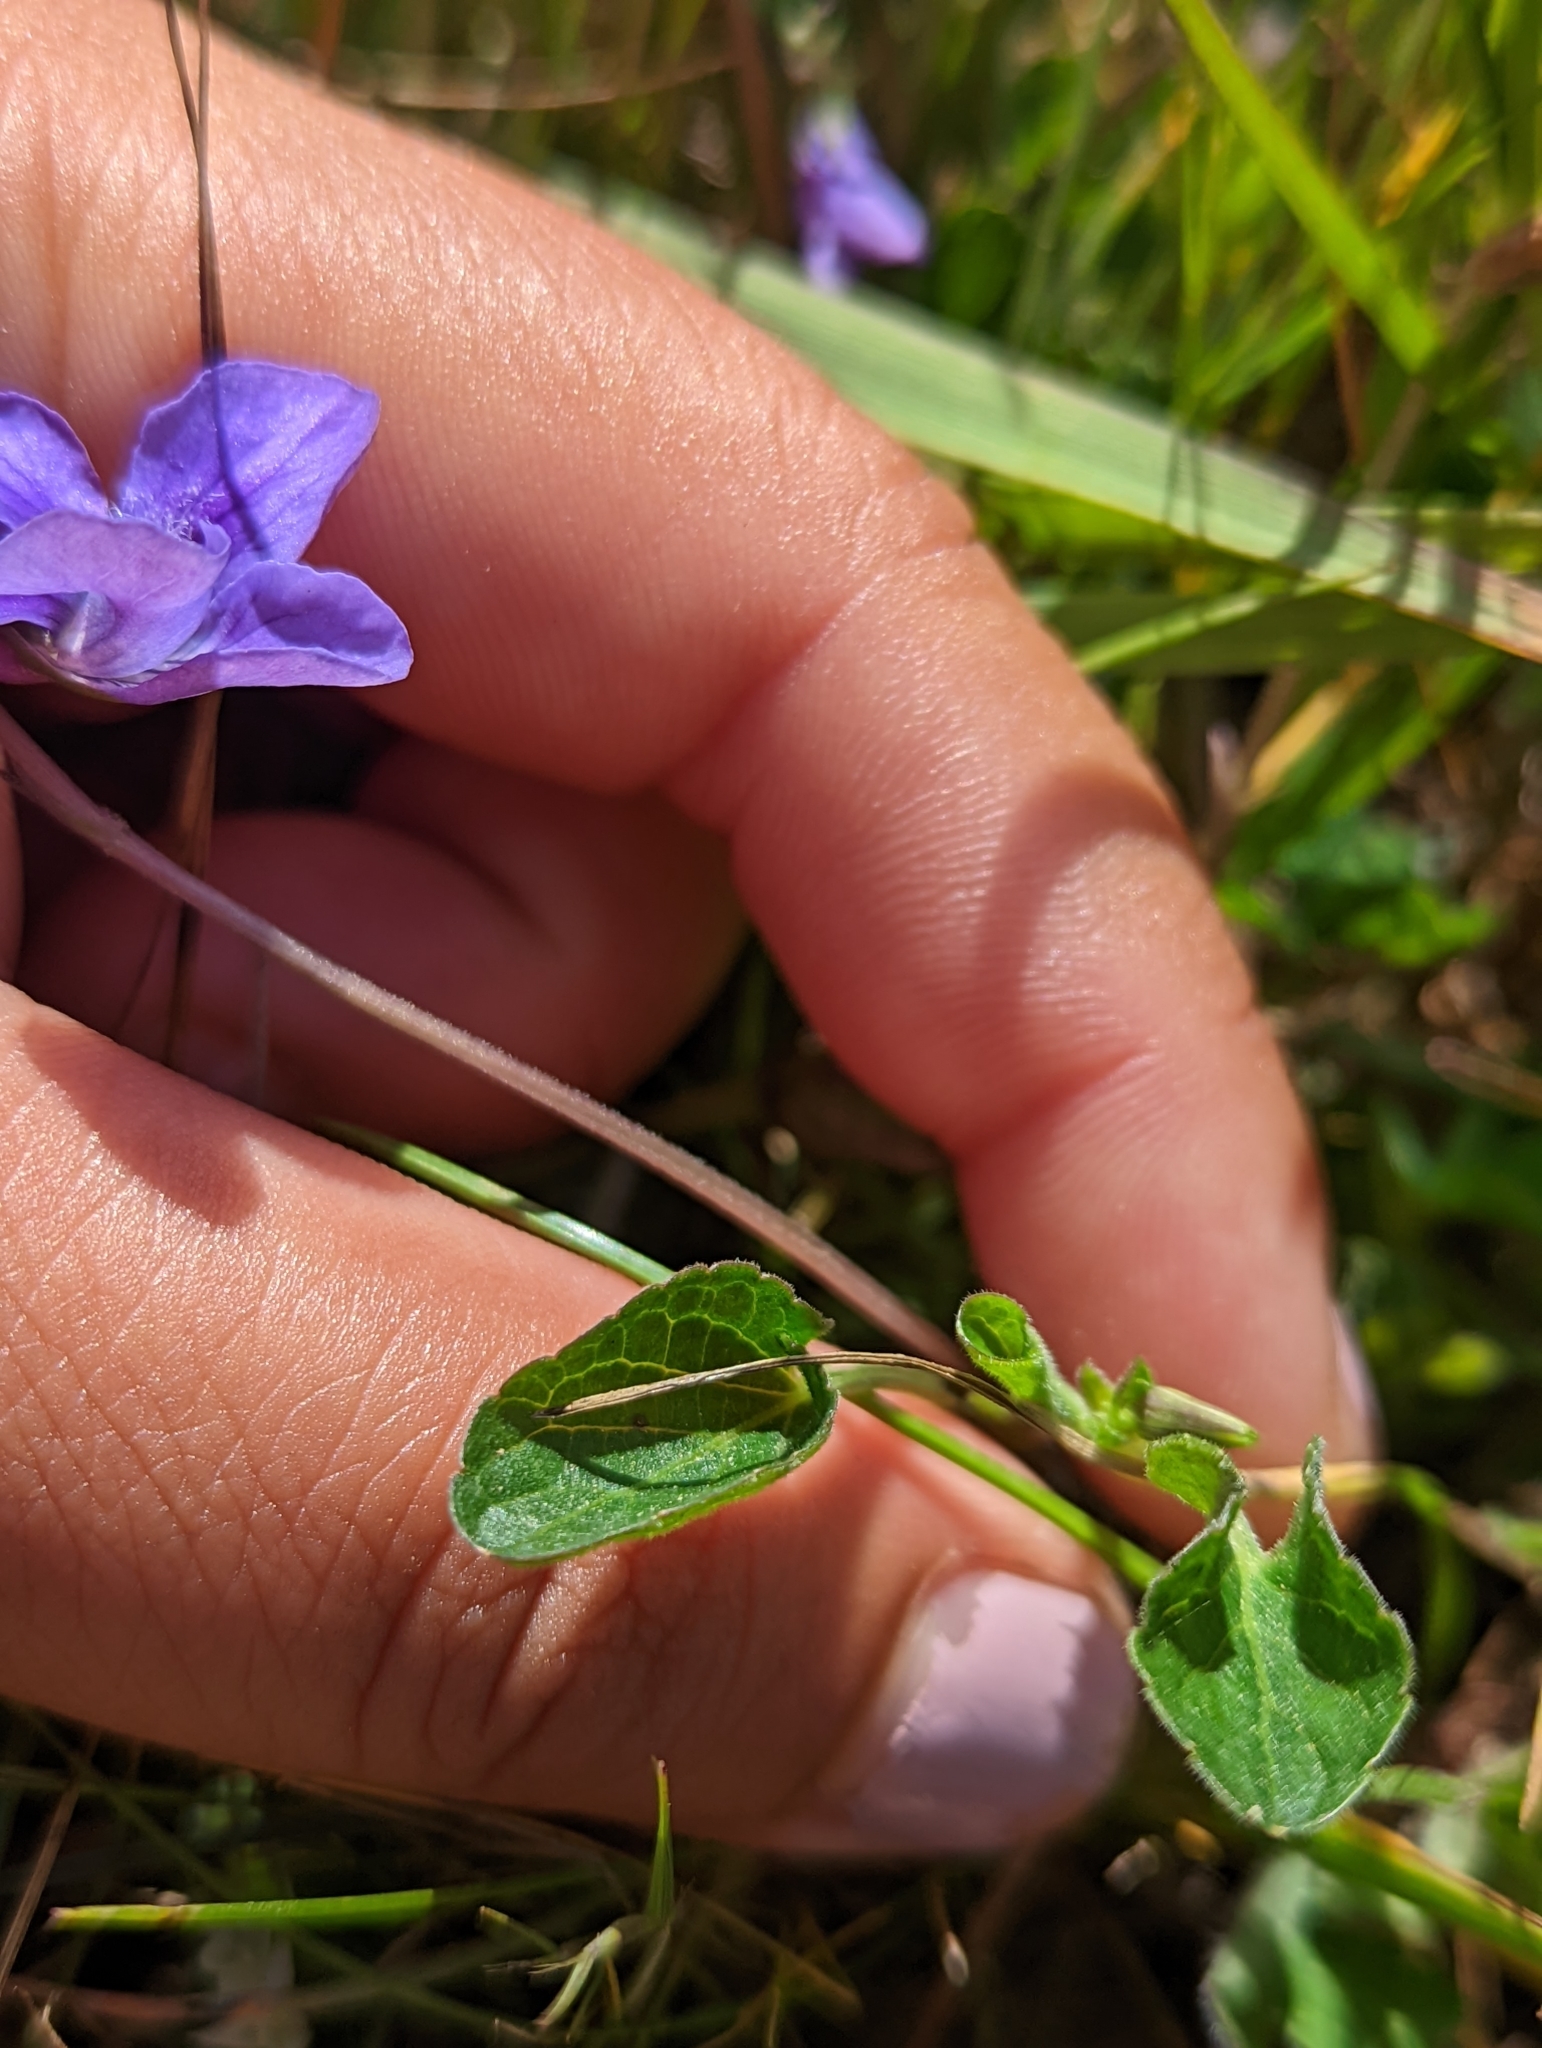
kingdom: Plantae
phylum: Tracheophyta
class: Magnoliopsida
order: Malpighiales
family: Violaceae
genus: Viola
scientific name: Viola adunca
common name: Sand violet
